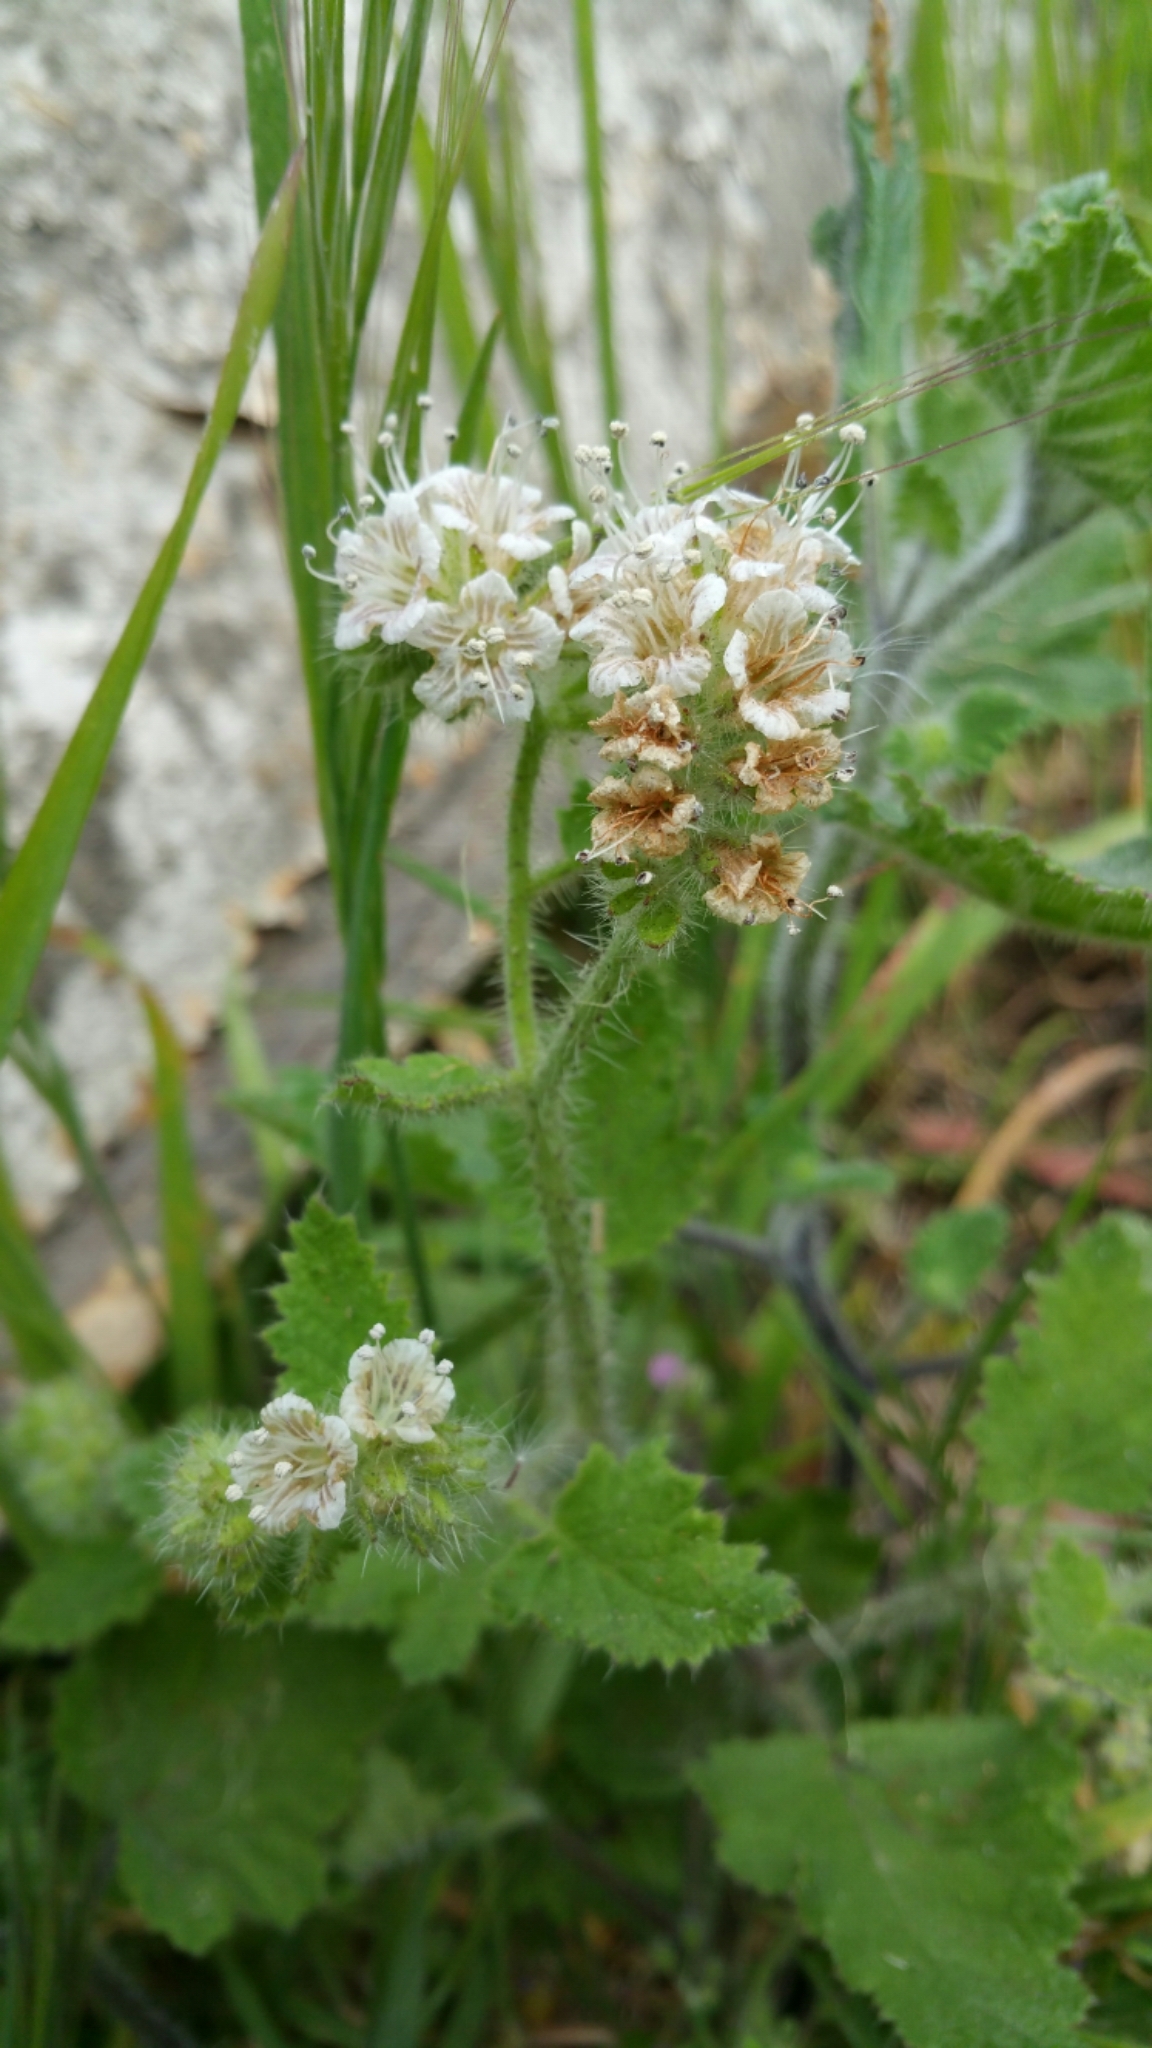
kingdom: Plantae
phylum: Tracheophyta
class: Magnoliopsida
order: Boraginales
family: Hydrophyllaceae
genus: Phacelia
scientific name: Phacelia malvifolia
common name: Mallow-leaf phacelia
